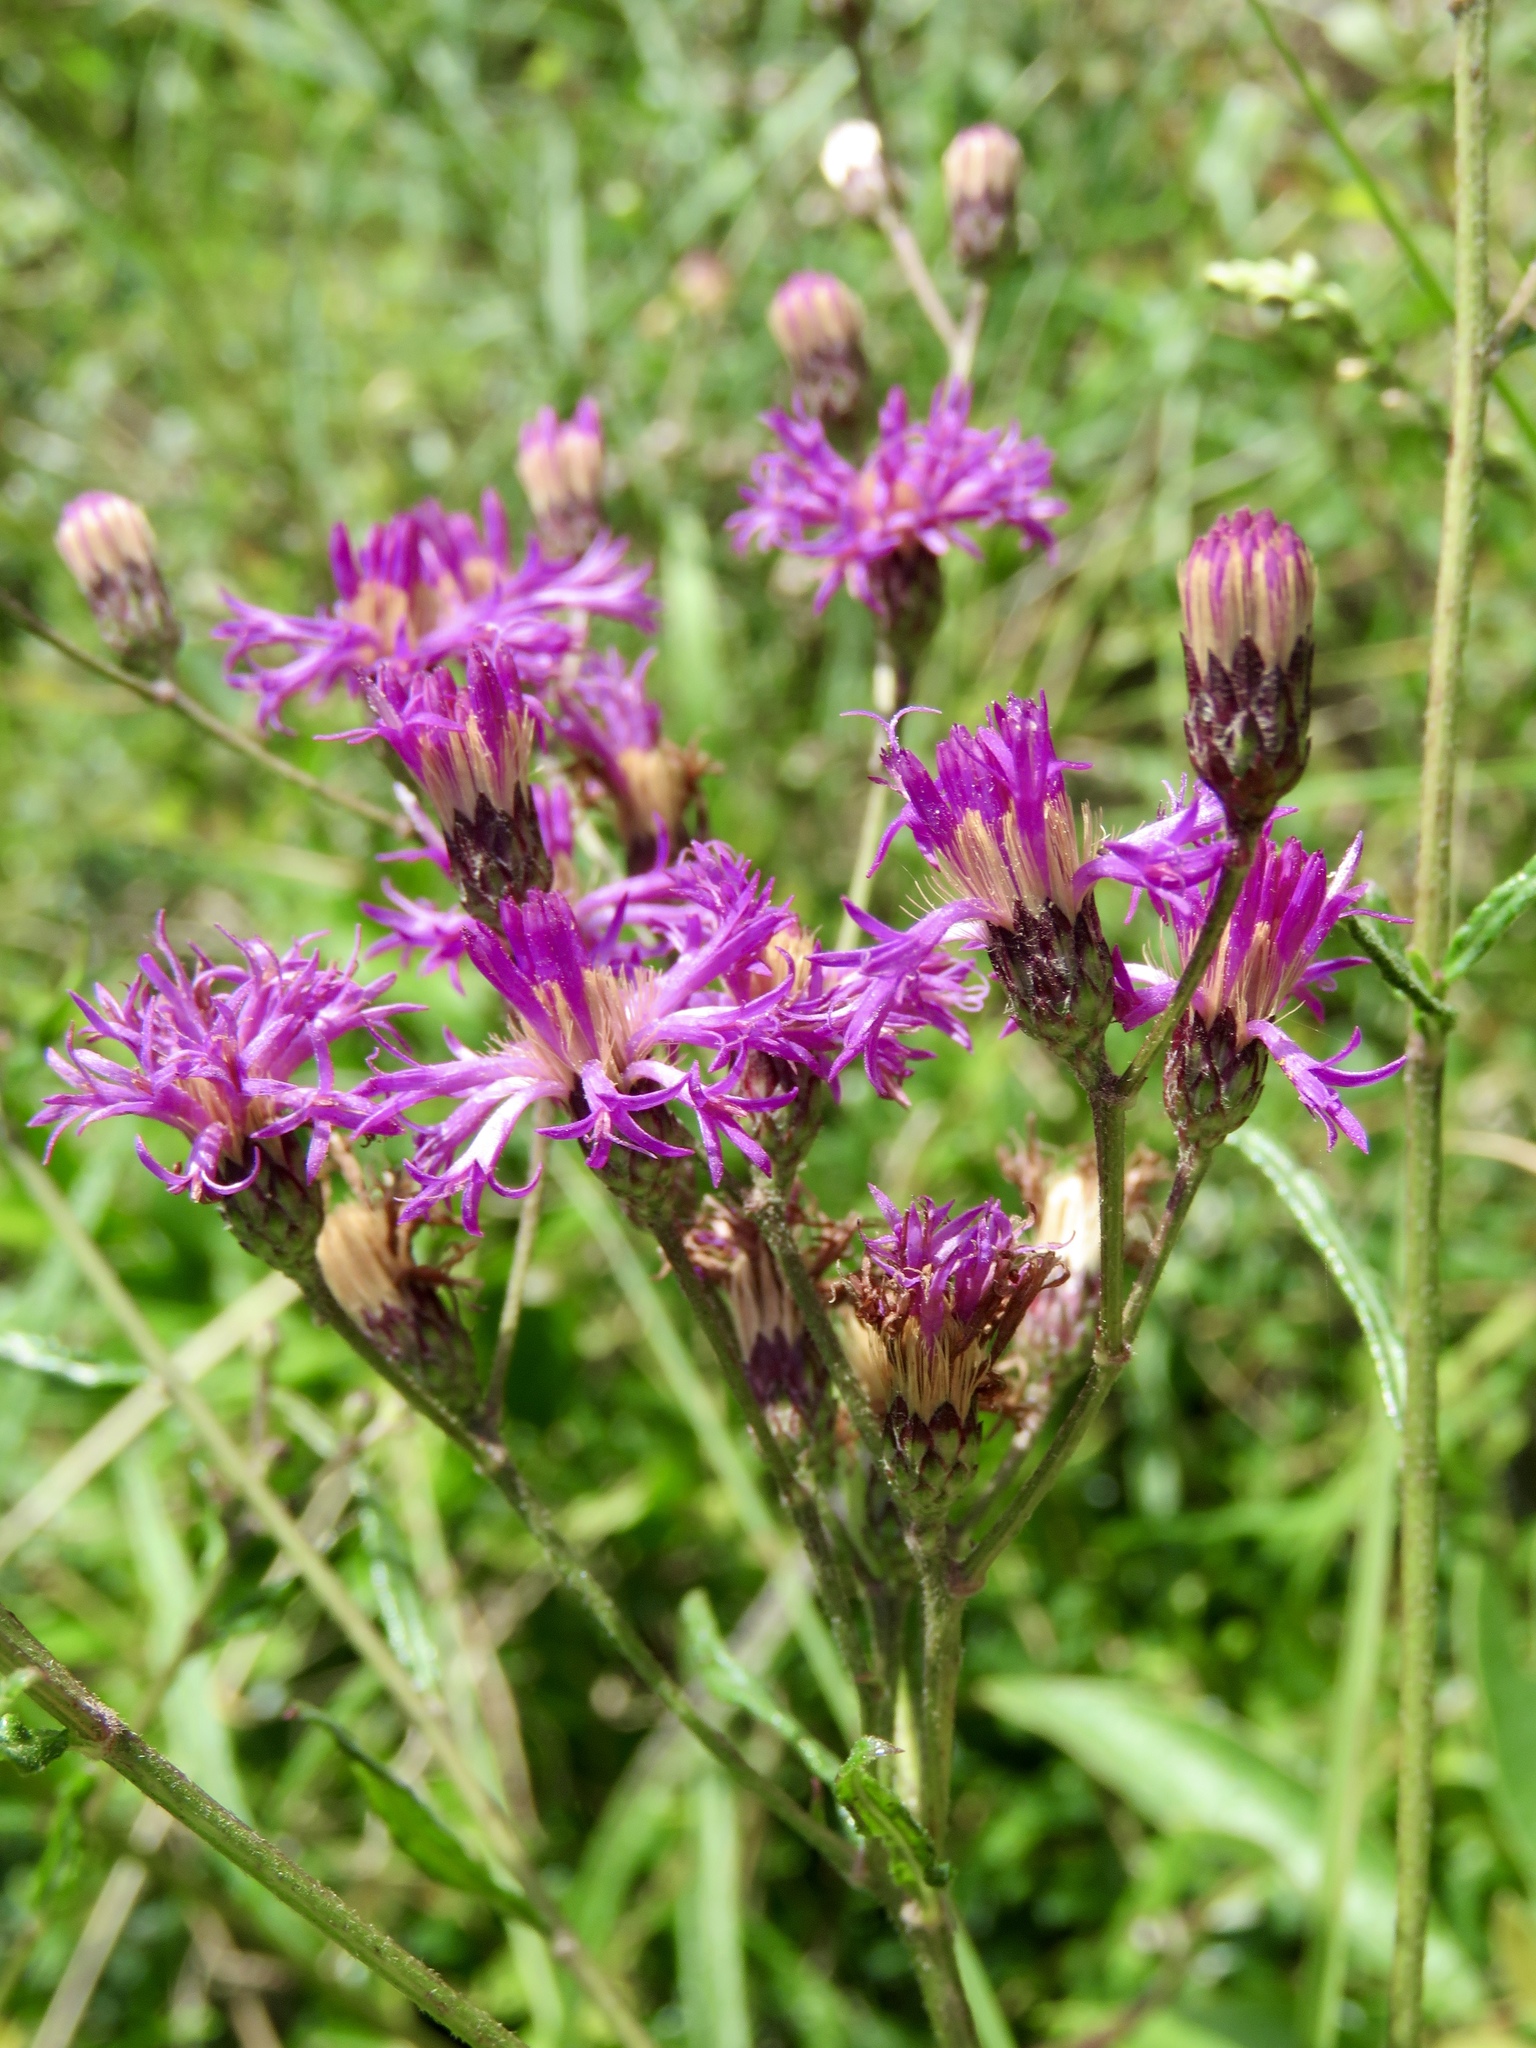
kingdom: Plantae
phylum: Tracheophyta
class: Magnoliopsida
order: Asterales
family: Asteraceae
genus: Vernonia
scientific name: Vernonia texana
